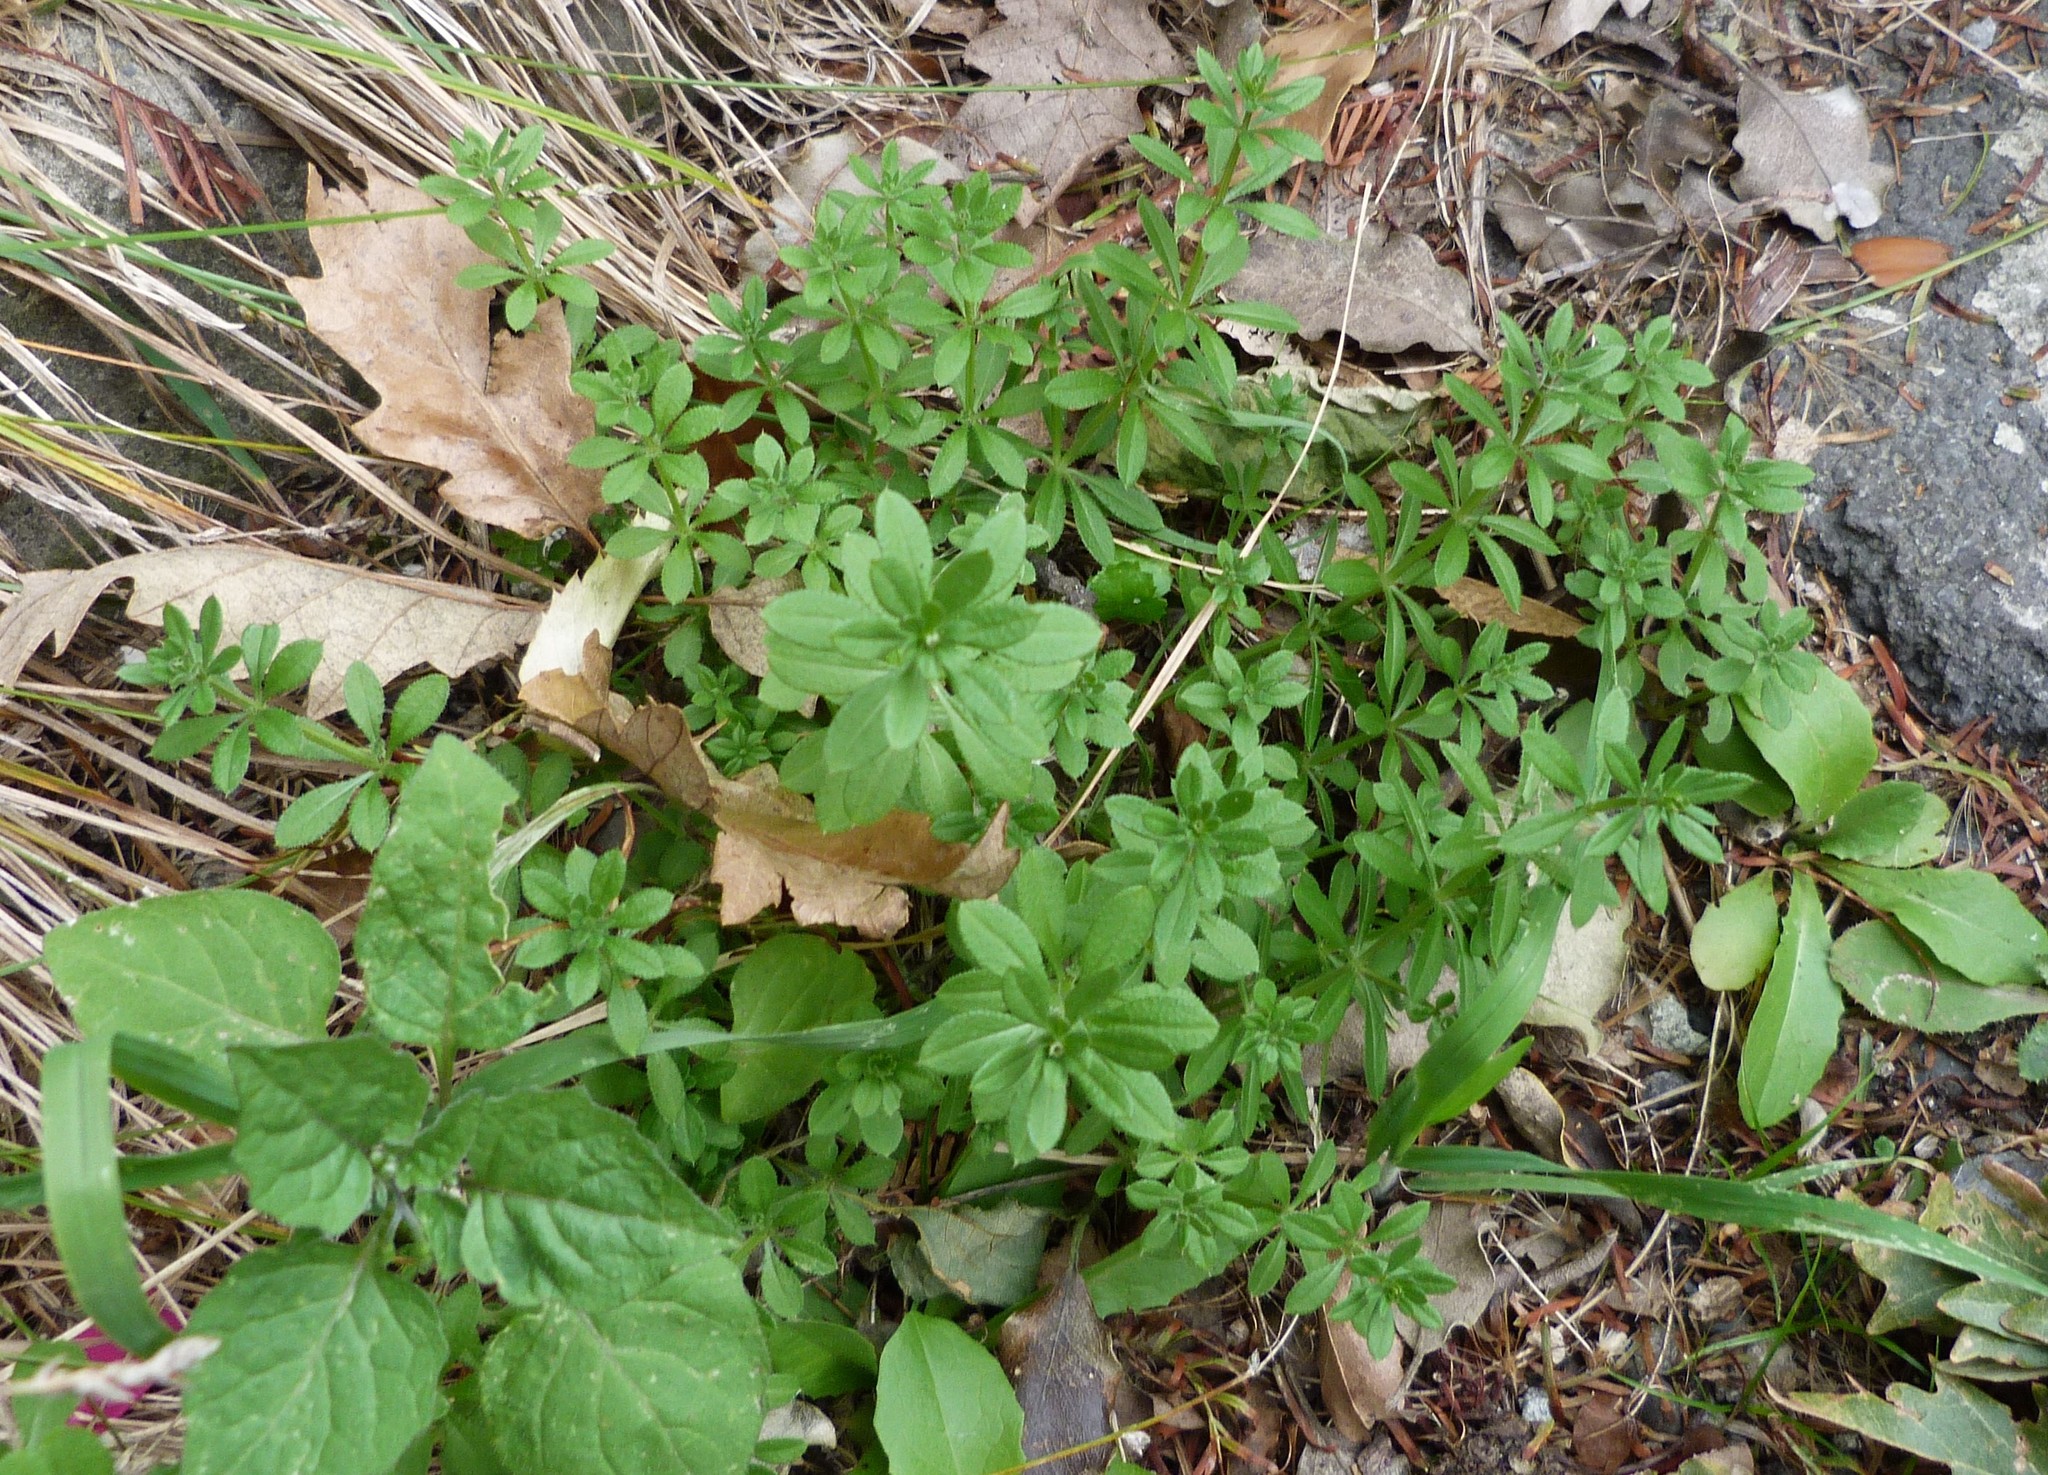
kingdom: Plantae
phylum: Tracheophyta
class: Magnoliopsida
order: Gentianales
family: Rubiaceae
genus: Galium
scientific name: Galium aparine
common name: Cleavers
